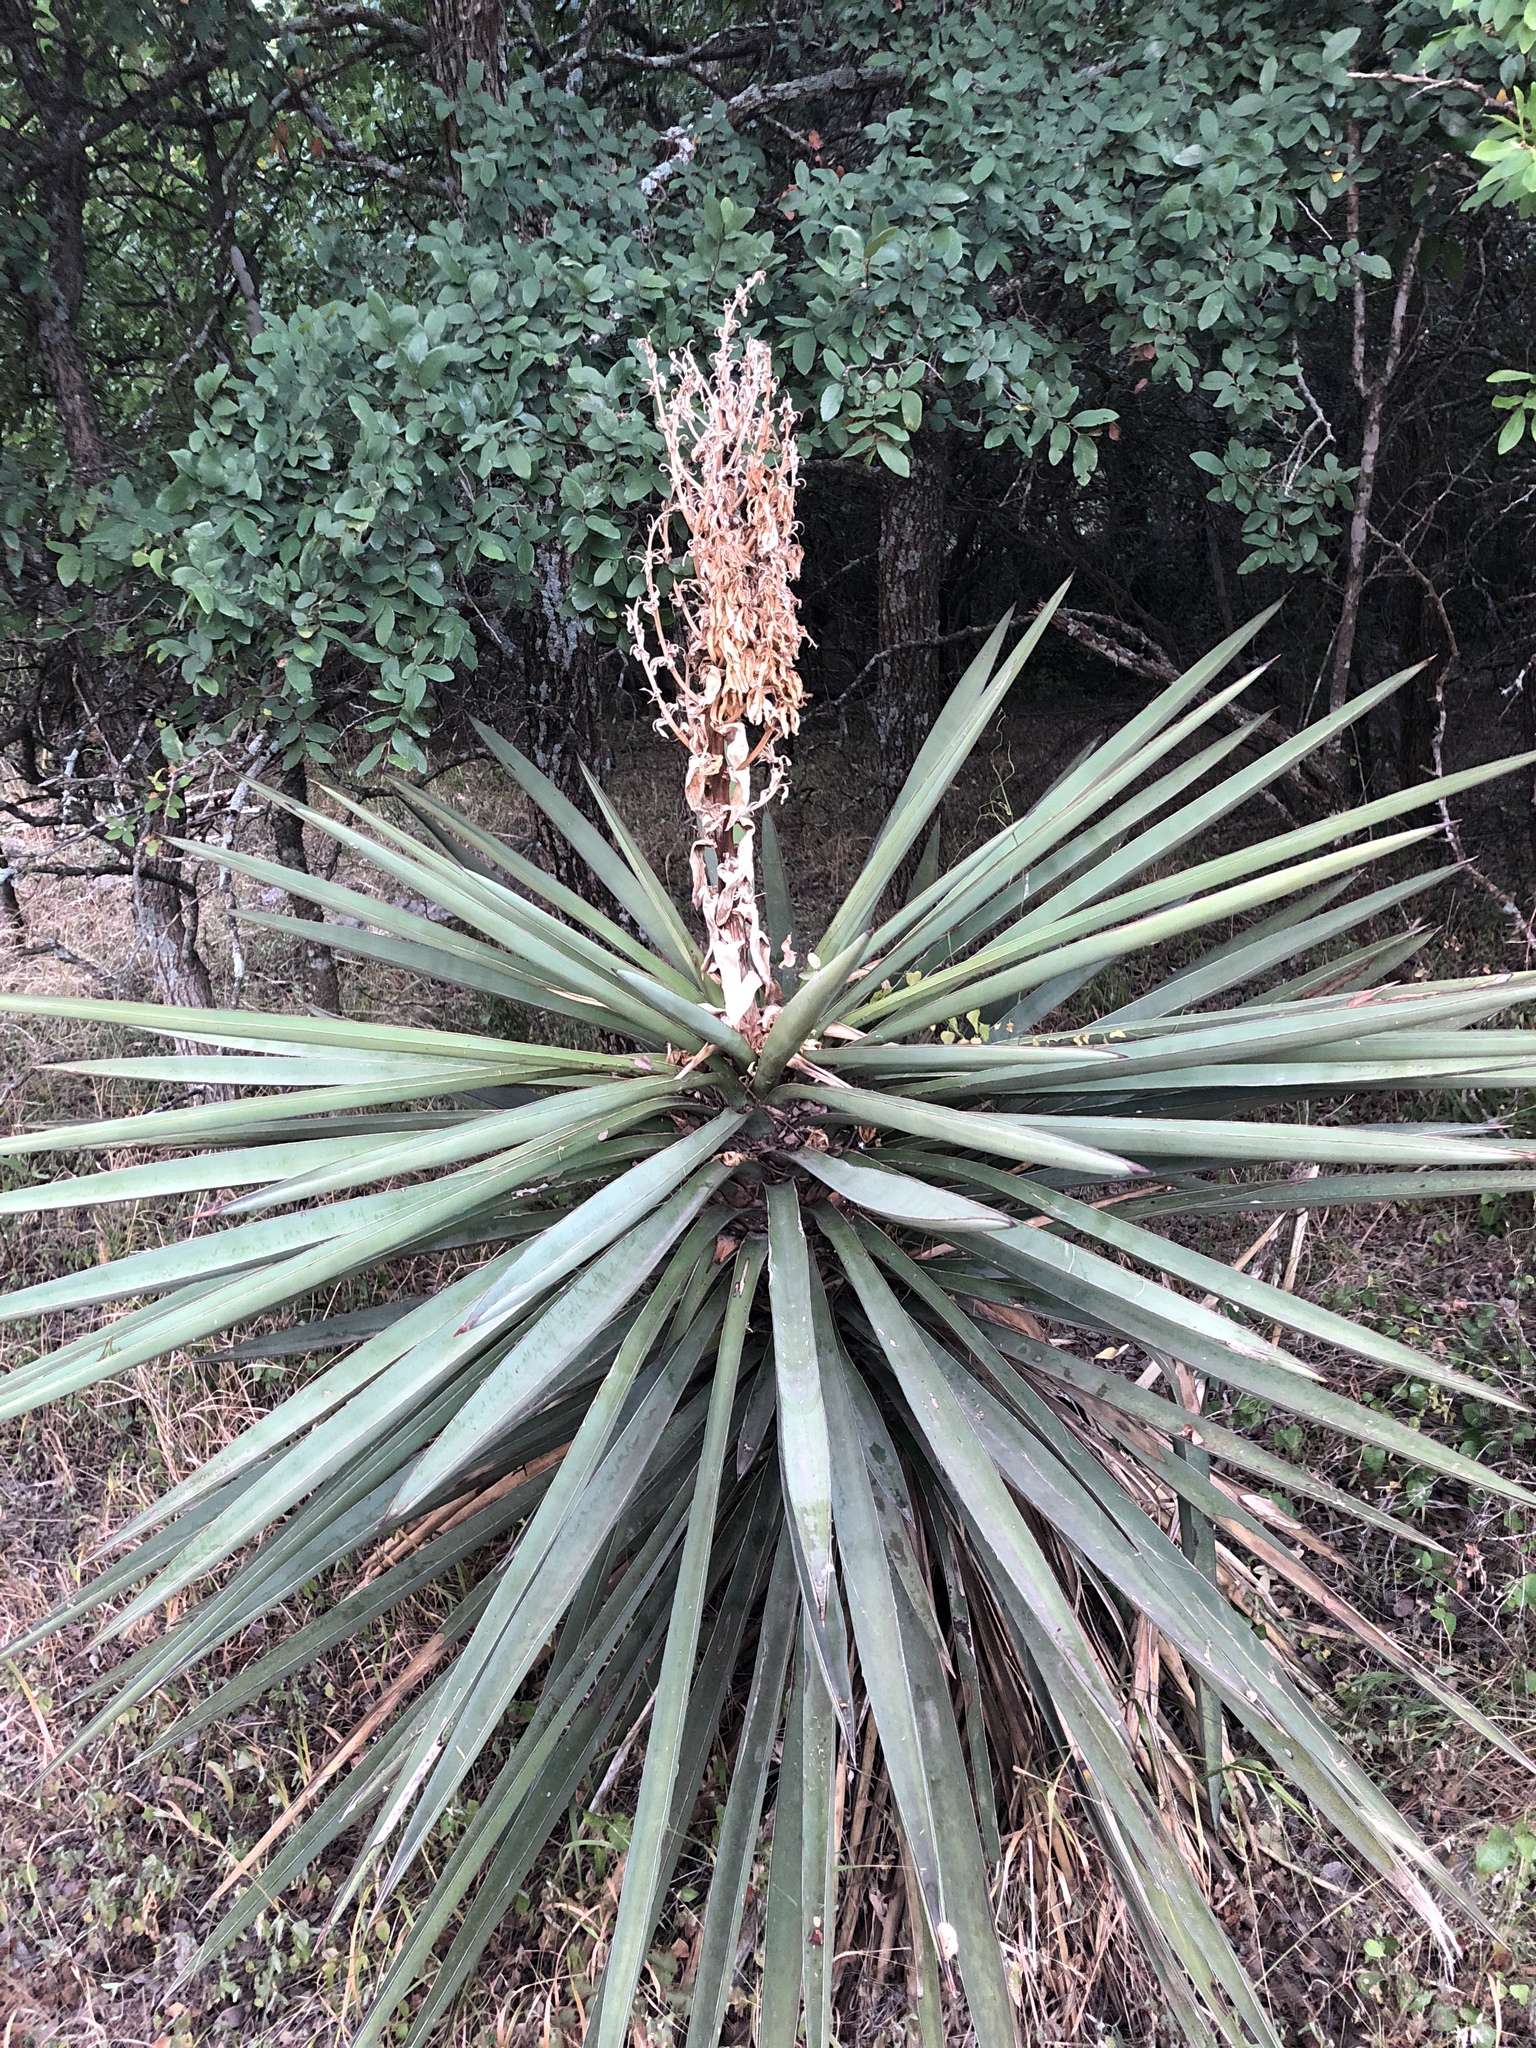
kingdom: Plantae
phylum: Tracheophyta
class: Liliopsida
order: Asparagales
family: Asparagaceae
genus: Yucca
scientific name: Yucca treculiana
